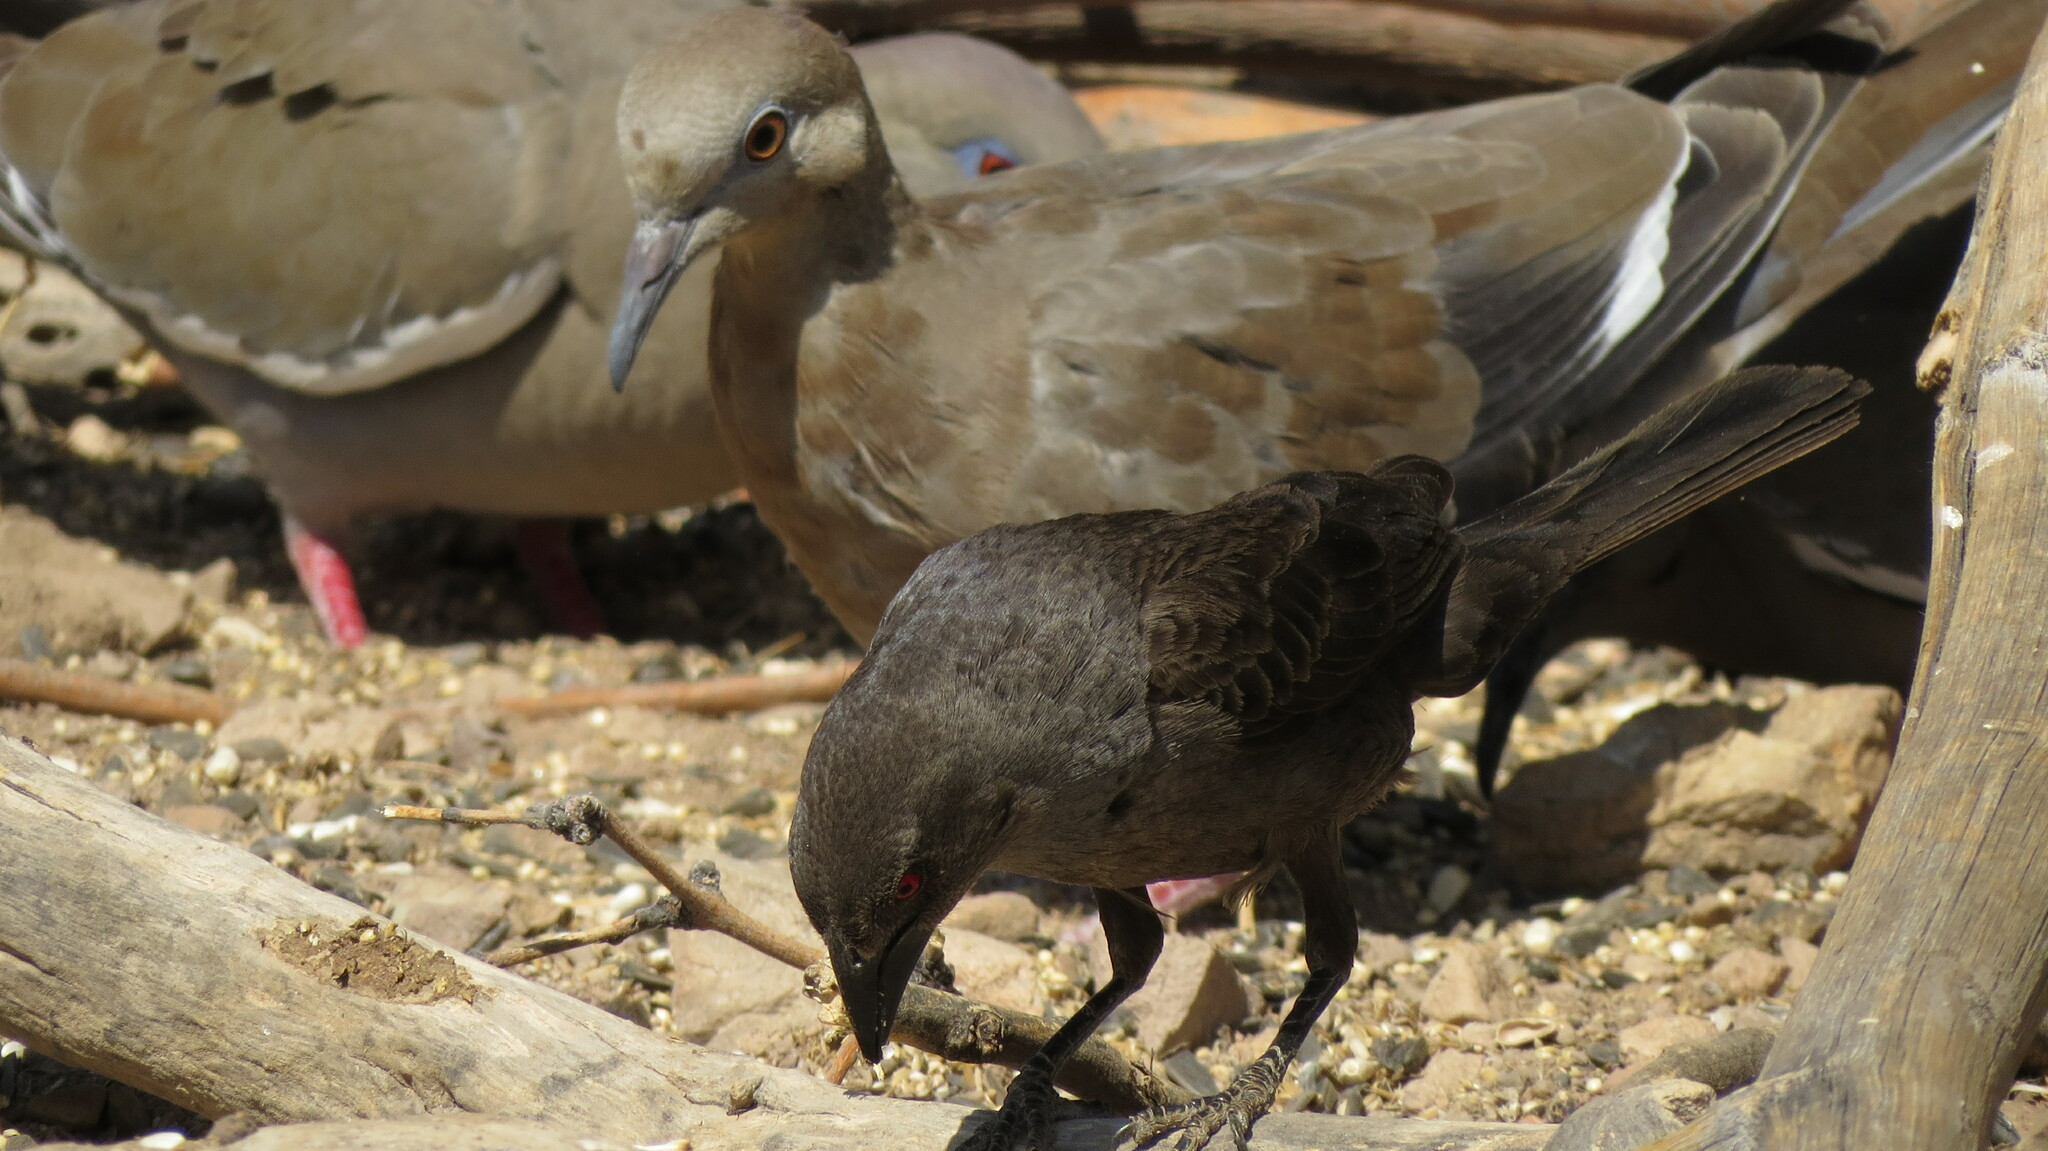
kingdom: Animalia
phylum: Chordata
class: Aves
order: Passeriformes
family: Icteridae
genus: Molothrus
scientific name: Molothrus aeneus
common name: Bronzed cowbird
